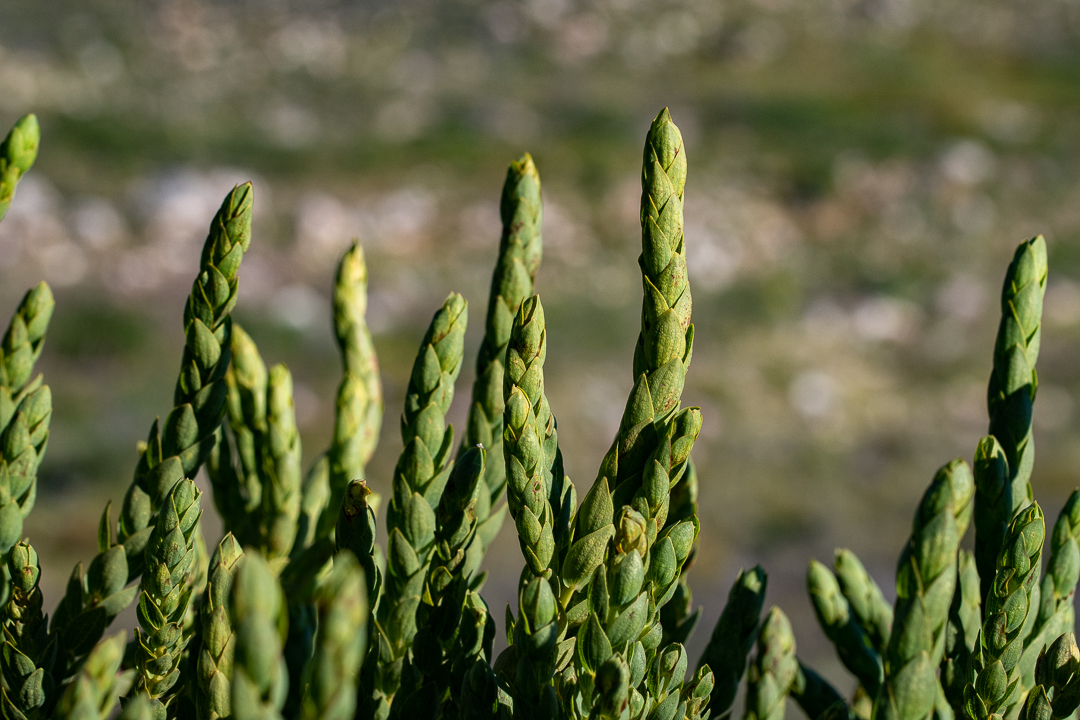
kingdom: Plantae
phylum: Tracheophyta
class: Magnoliopsida
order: Fabales
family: Fabaceae
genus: Aspalathus
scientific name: Aspalathus elliptica
